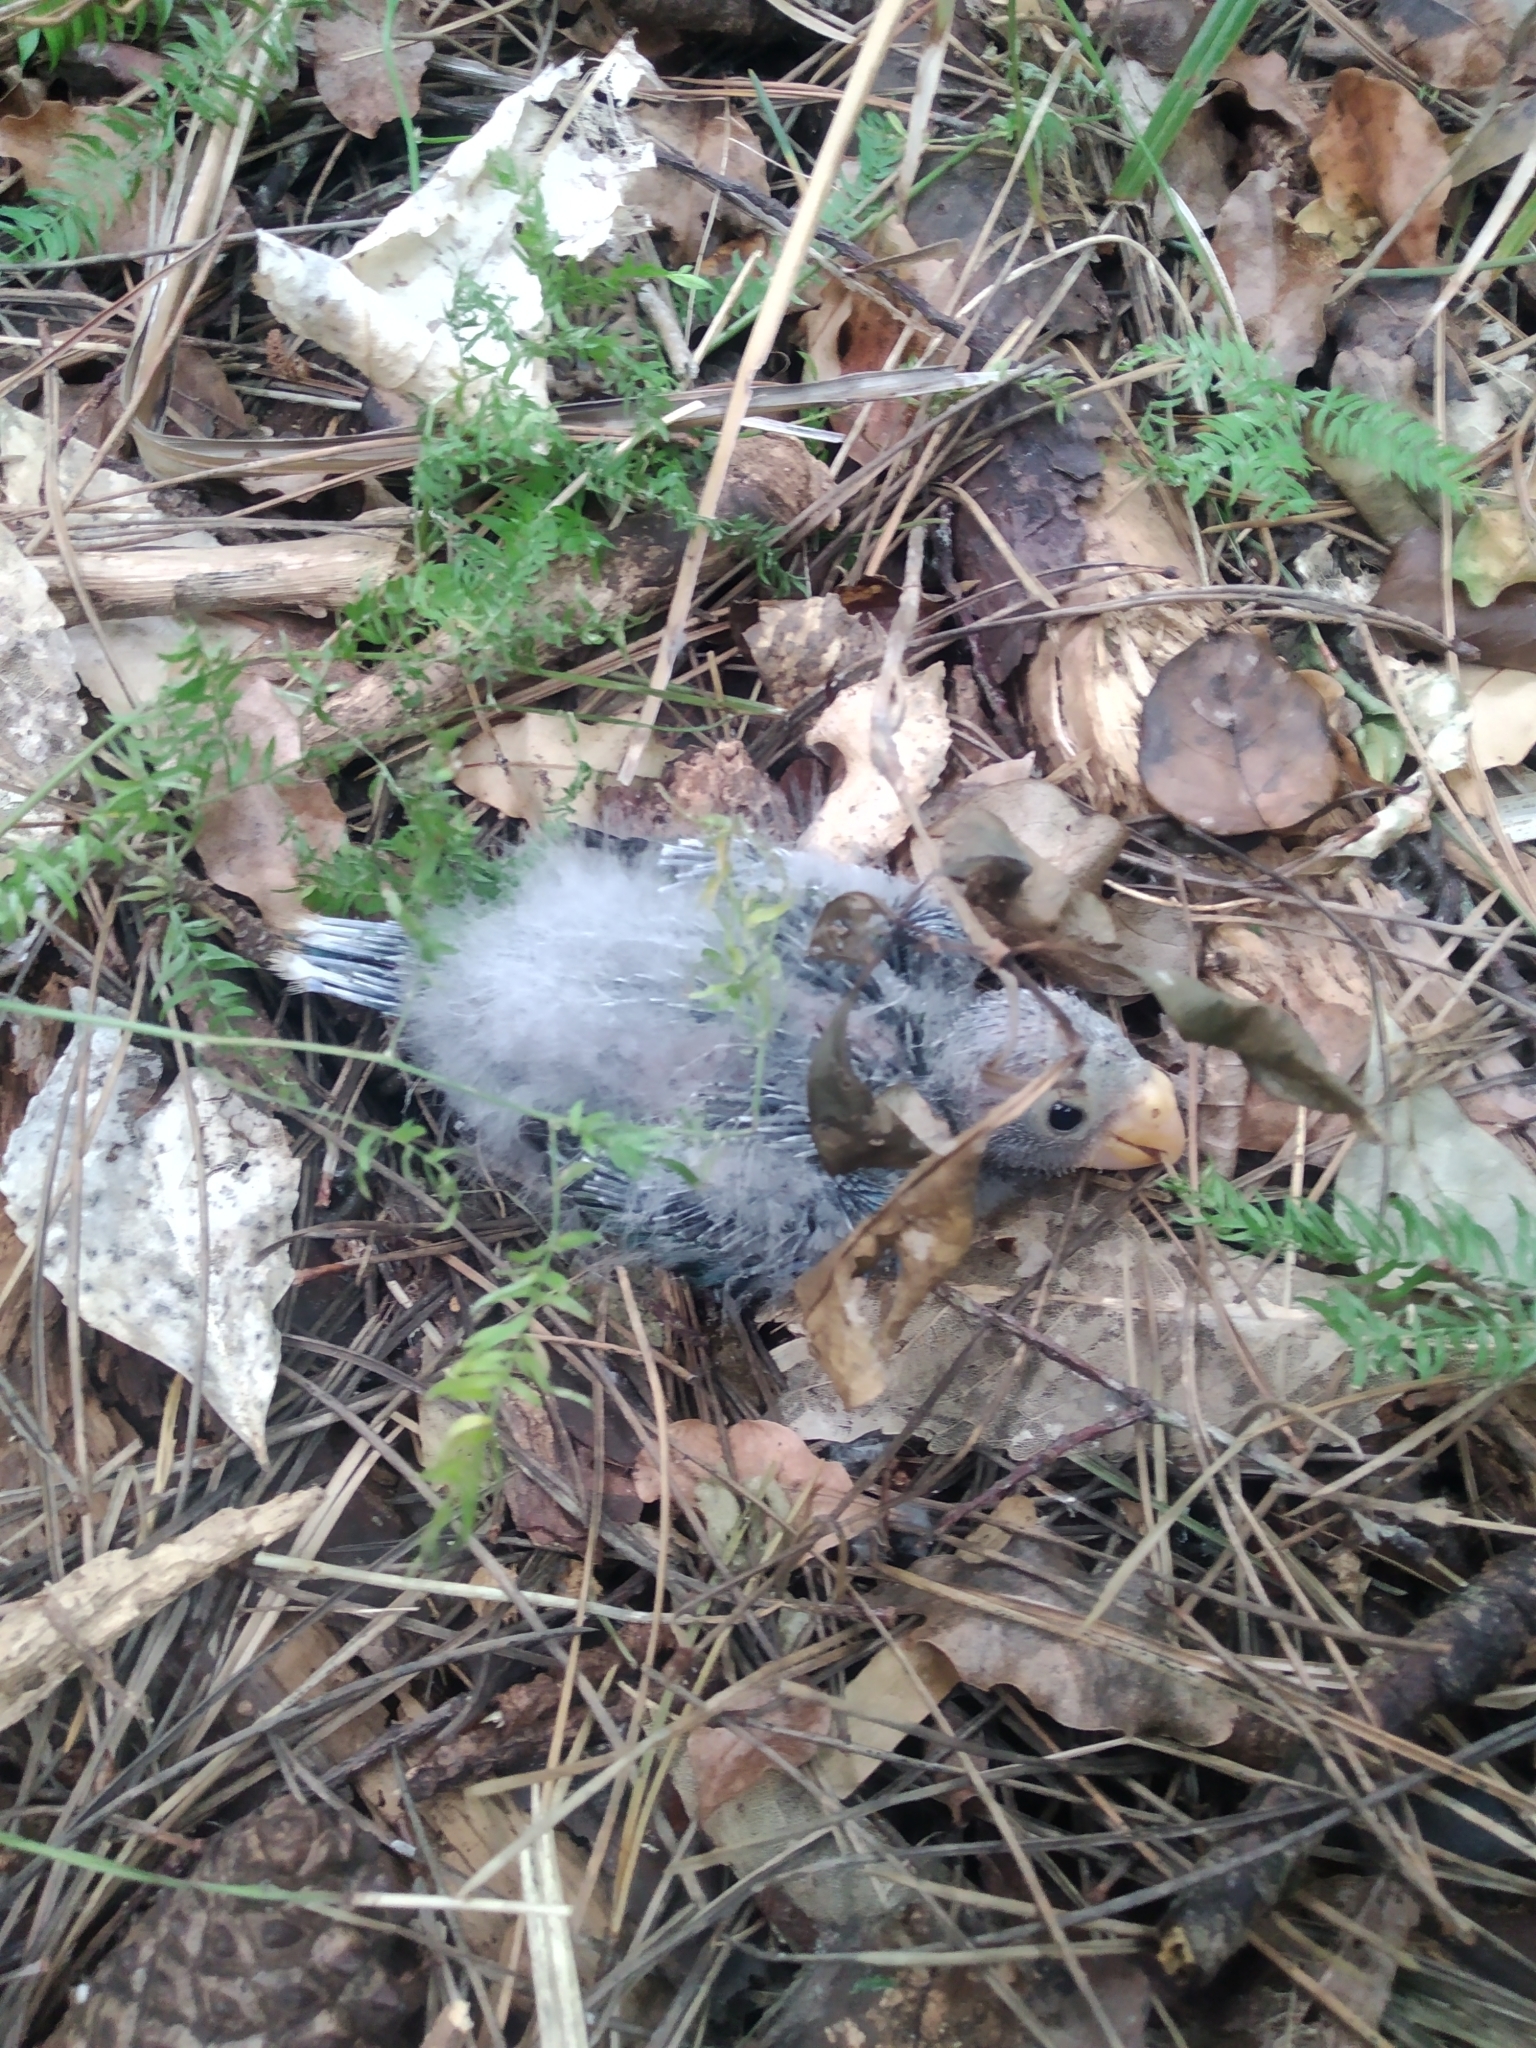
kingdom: Animalia
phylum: Chordata
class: Aves
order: Psittaciformes
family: Psittacidae
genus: Platycercus
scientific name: Platycercus eximius
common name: Eastern rosella
